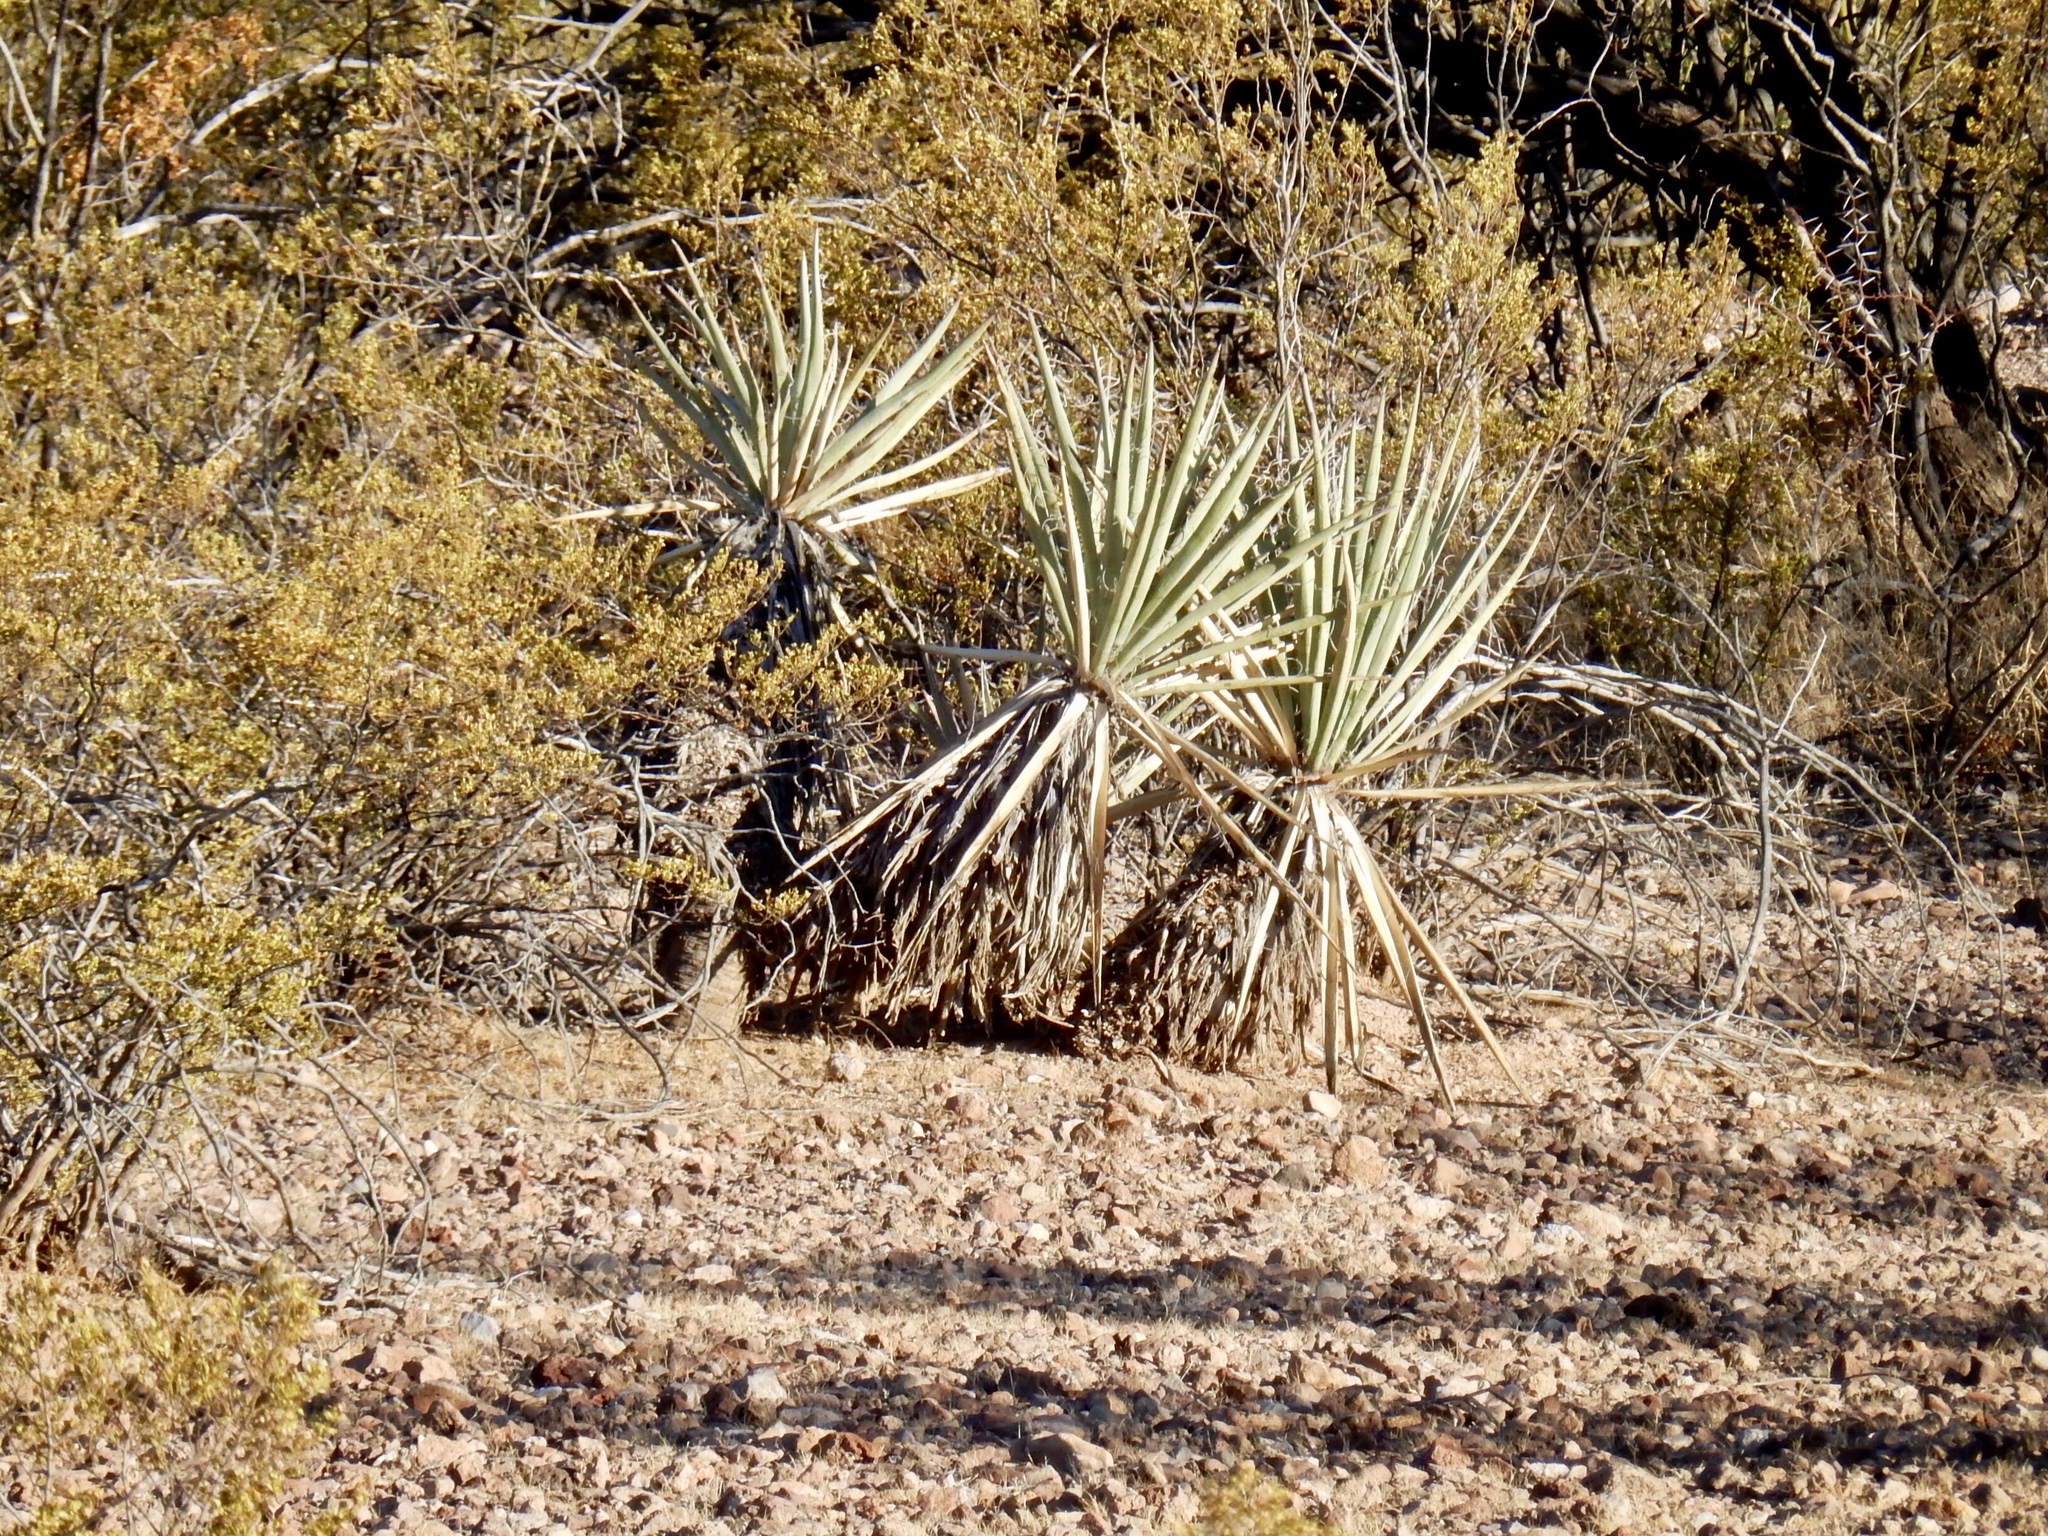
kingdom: Plantae
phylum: Tracheophyta
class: Liliopsida
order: Asparagales
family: Asparagaceae
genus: Yucca
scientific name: Yucca baccata
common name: Banana yucca
